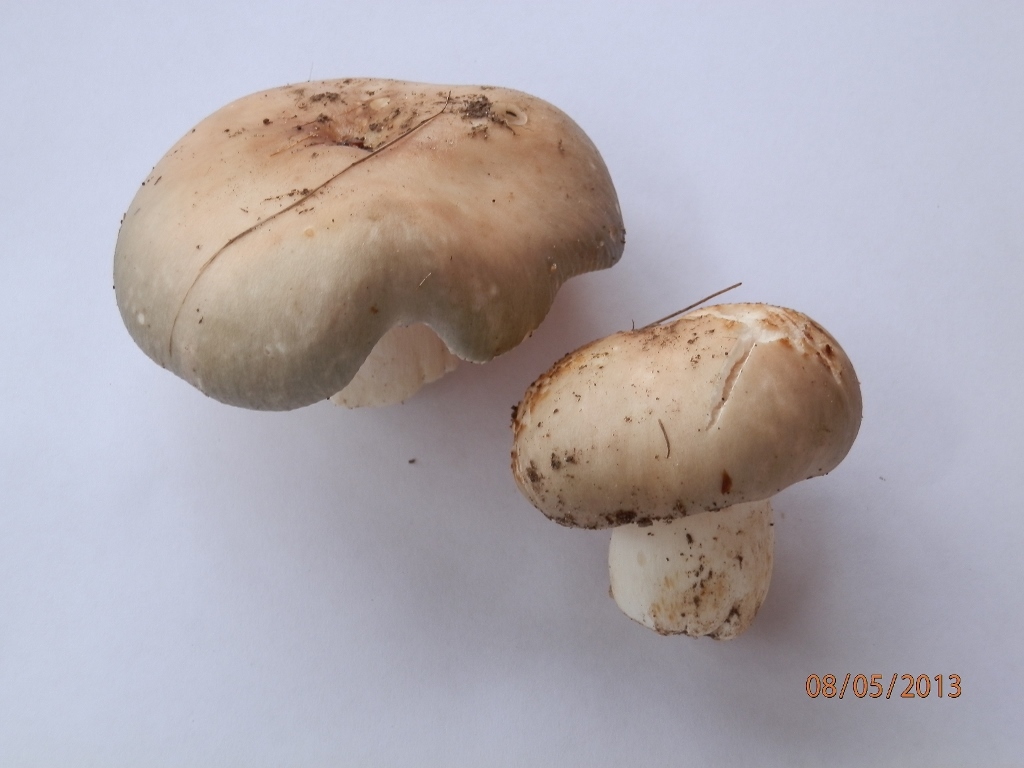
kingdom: Fungi
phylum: Basidiomycota
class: Agaricomycetes
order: Russulales
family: Russulaceae
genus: Russula
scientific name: Russula crustosa
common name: Green quilt russula
